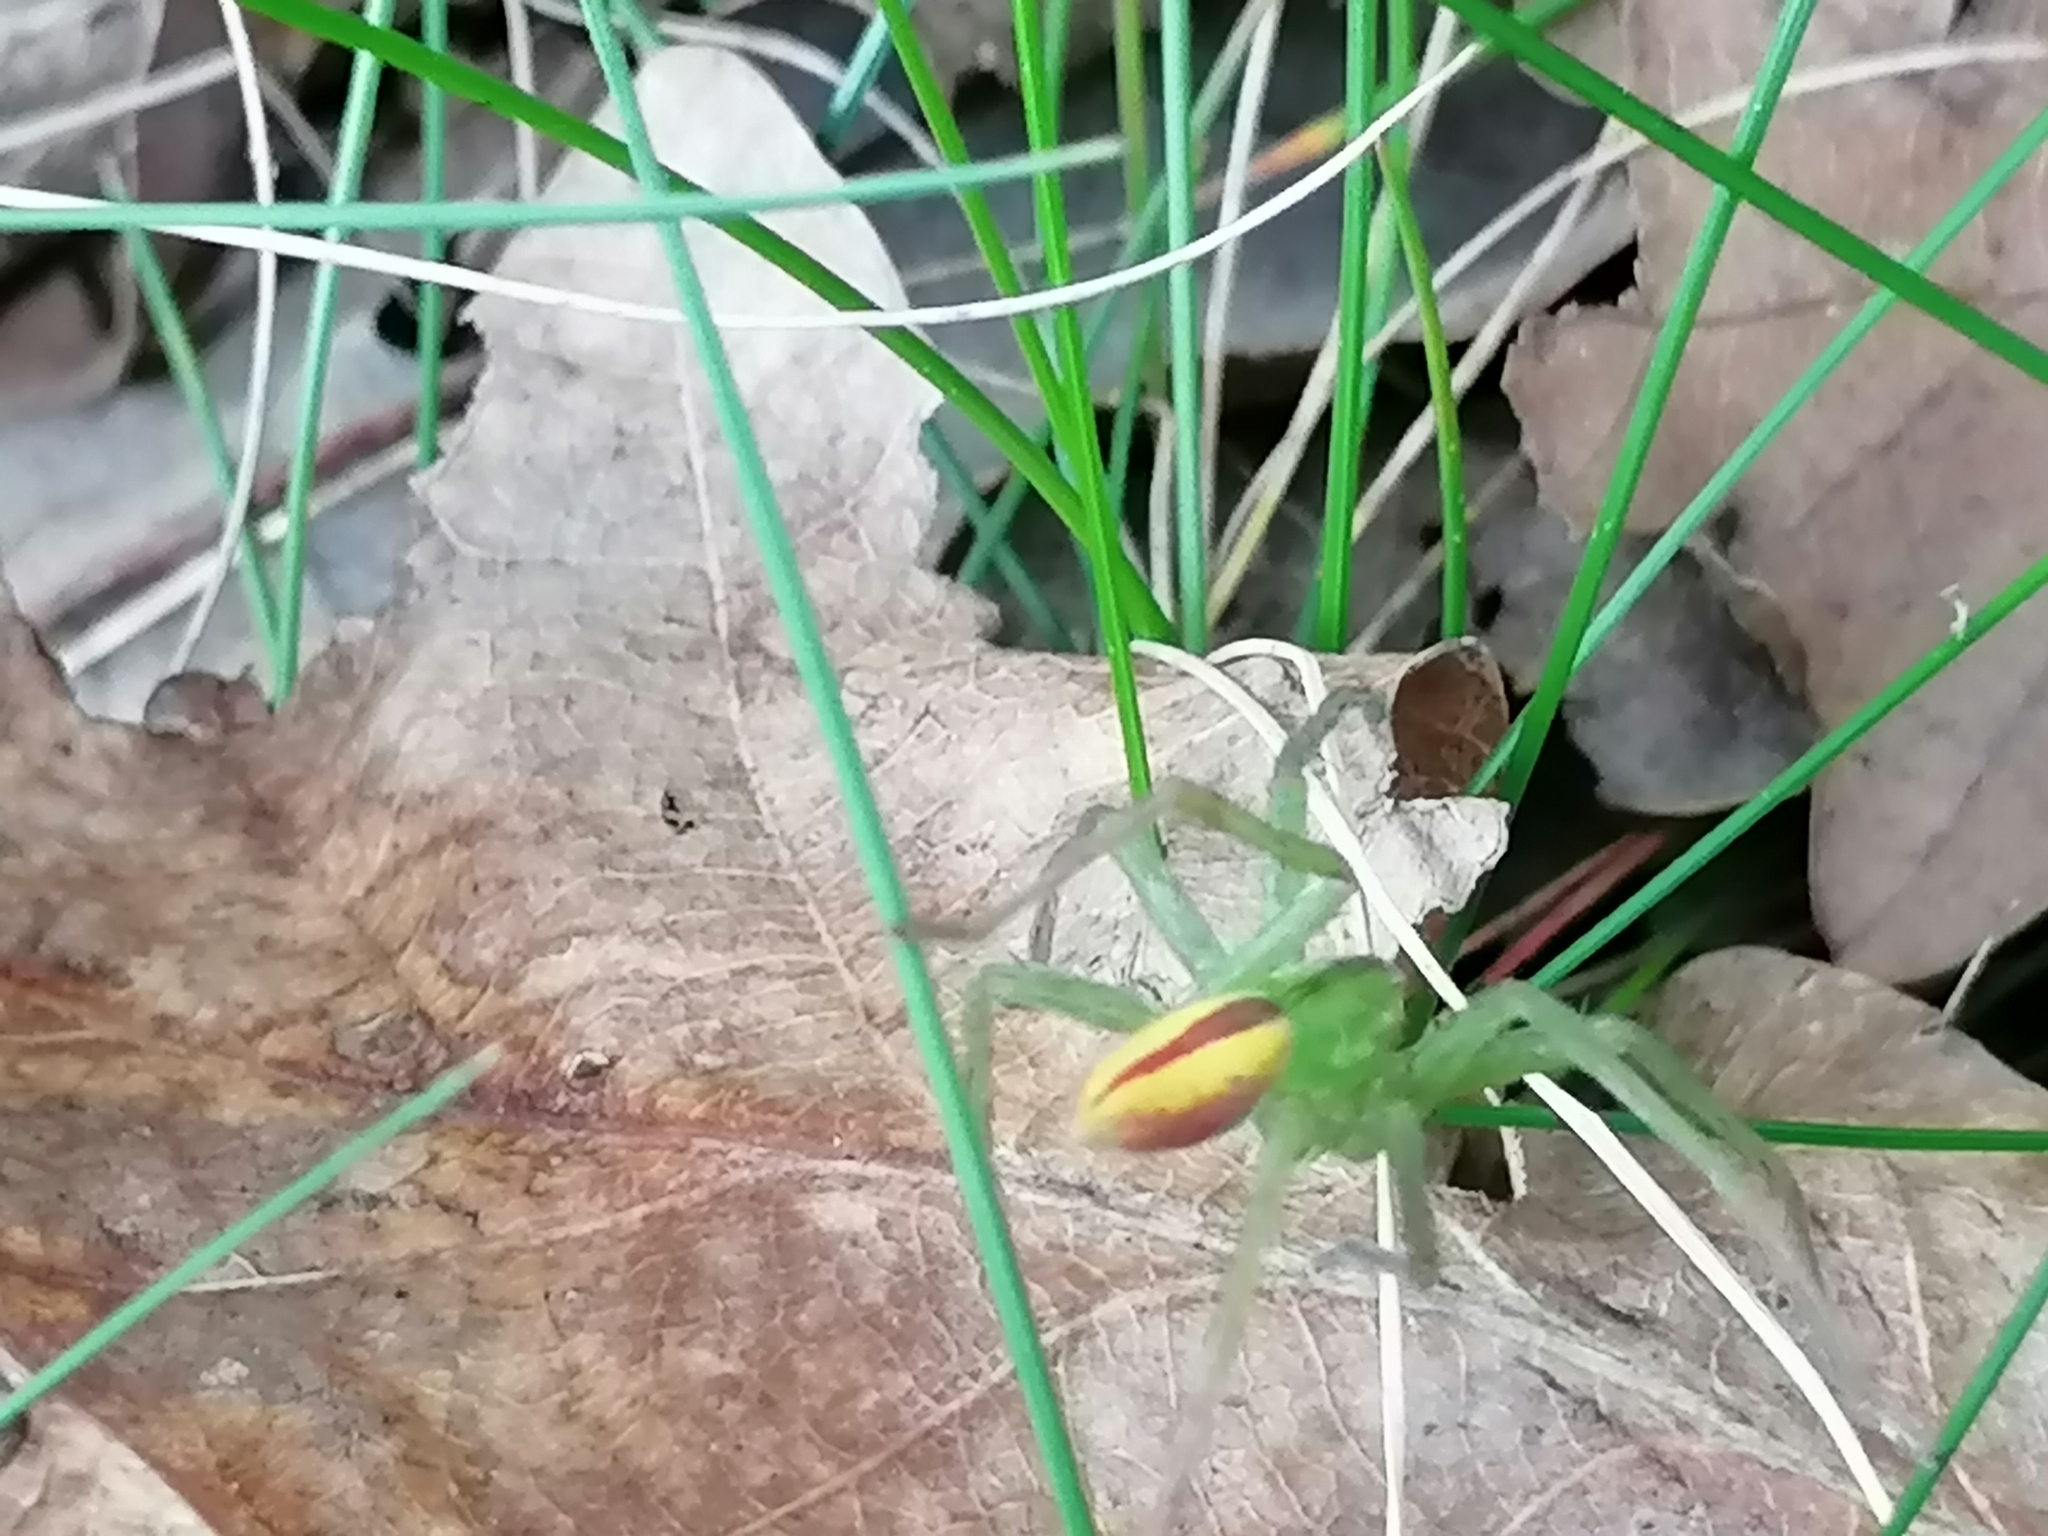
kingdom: Animalia
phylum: Arthropoda
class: Arachnida
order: Araneae
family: Sparassidae
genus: Micrommata
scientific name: Micrommata virescens
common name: Green spider
